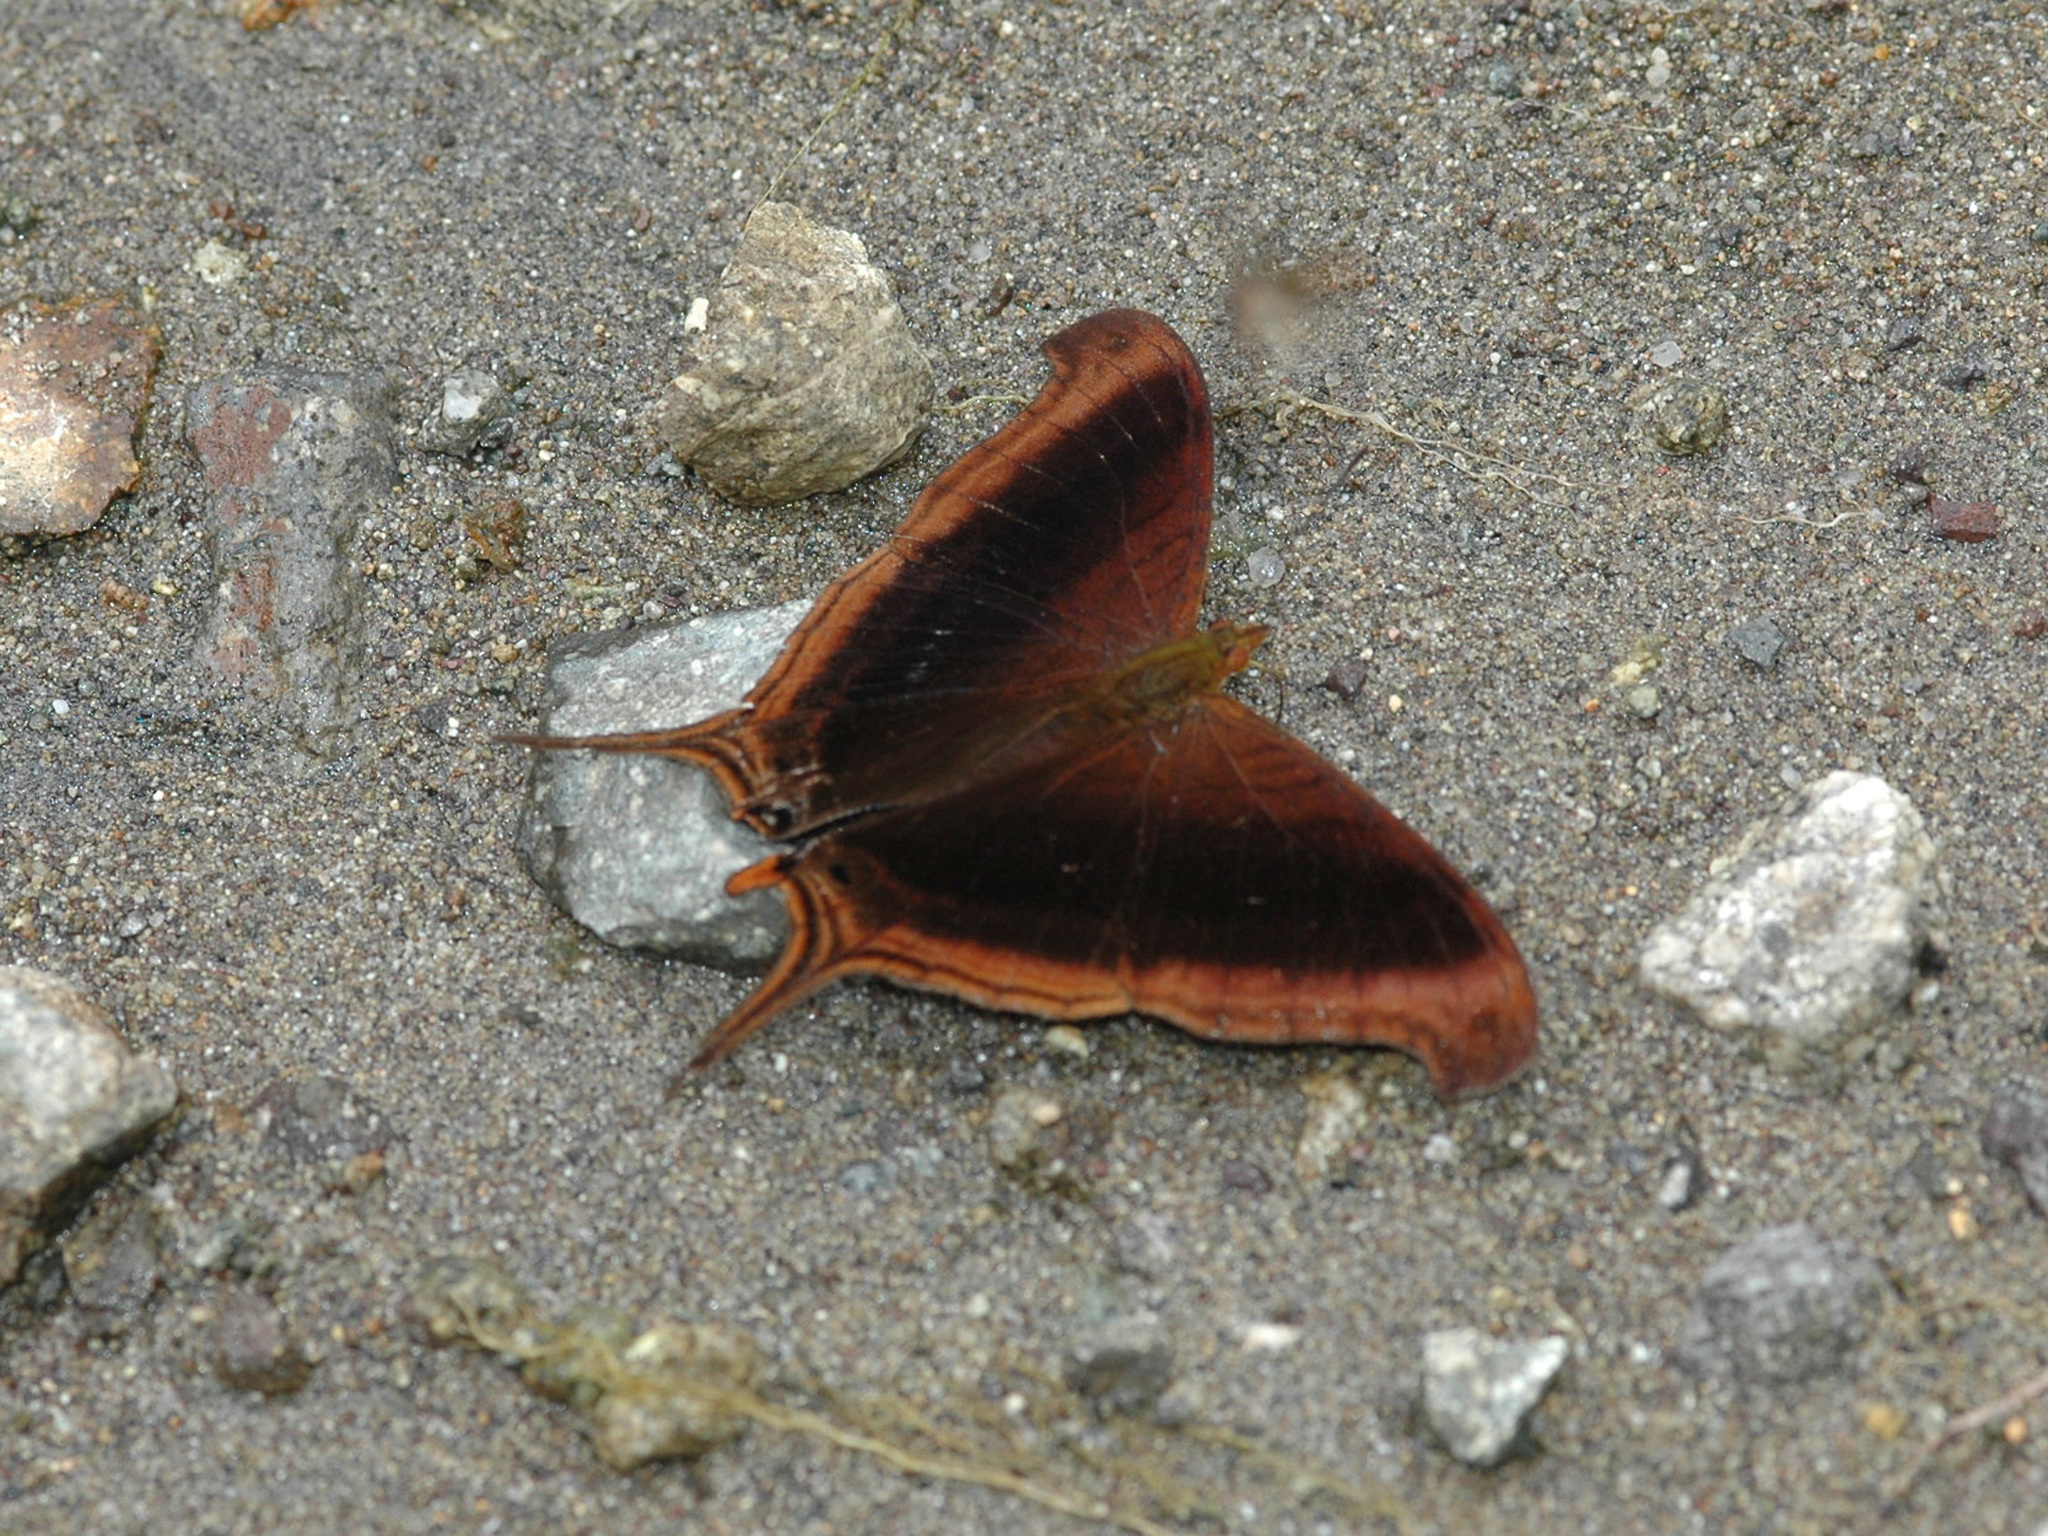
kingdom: Animalia
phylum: Arthropoda
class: Insecta
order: Lepidoptera
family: Nymphalidae
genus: Marpesia
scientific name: Marpesia zerynthia
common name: Waiter daggerwing
